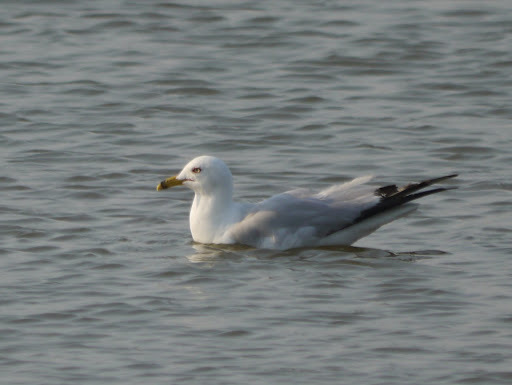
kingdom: Animalia
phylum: Chordata
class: Aves
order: Charadriiformes
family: Laridae
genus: Larus
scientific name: Larus delawarensis
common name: Ring-billed gull
